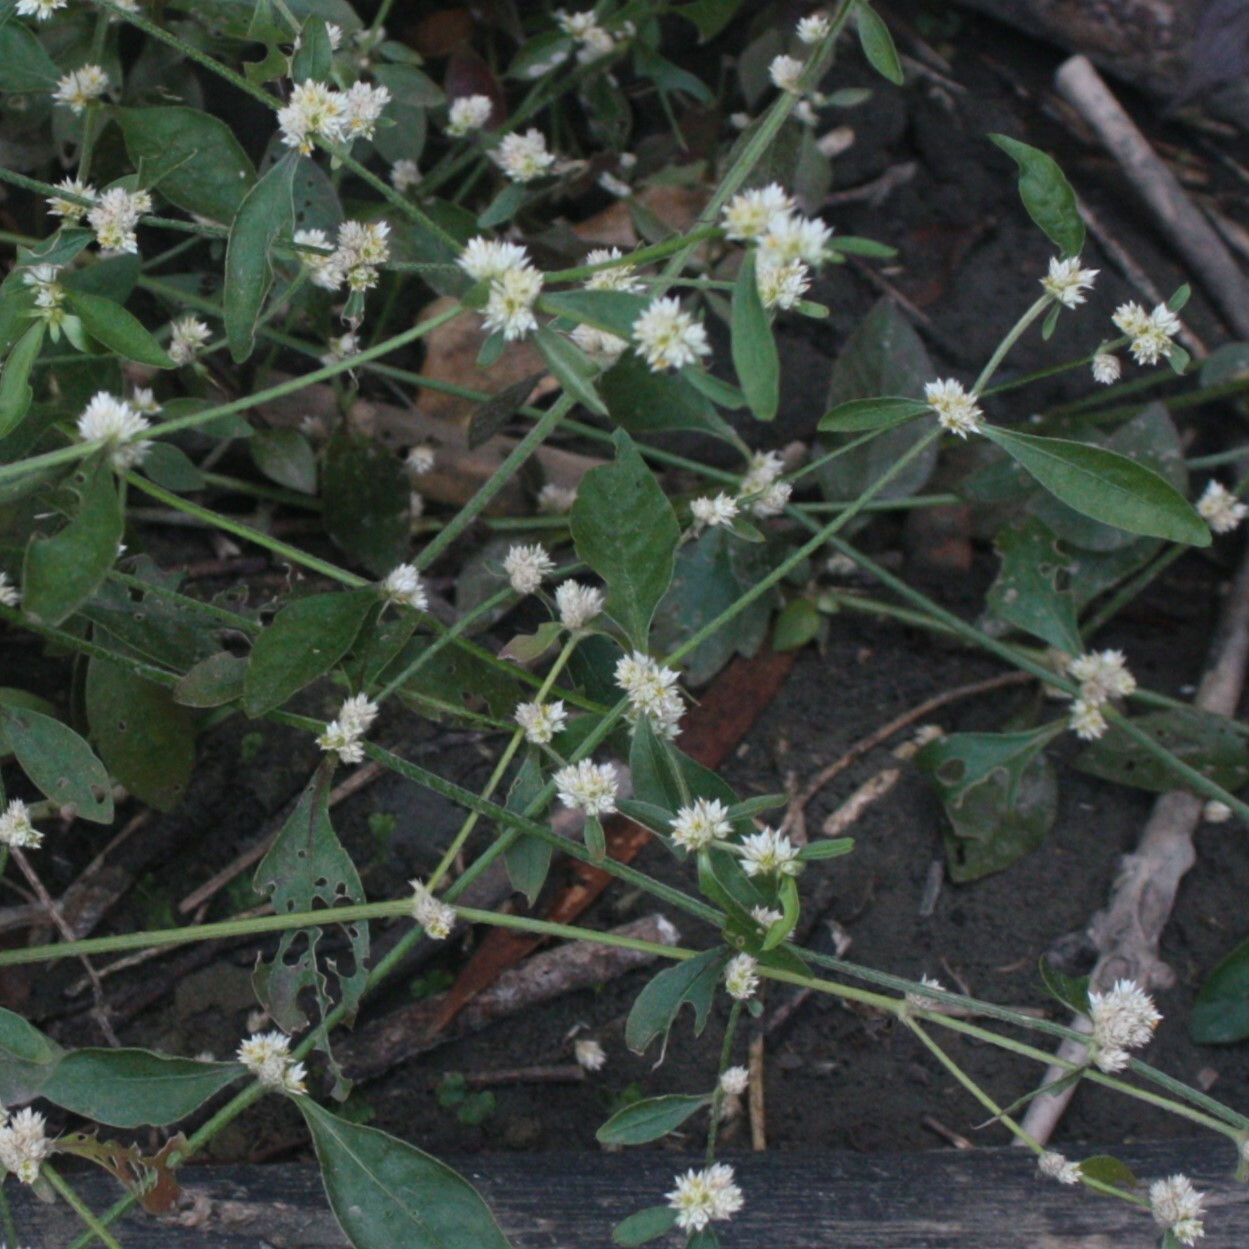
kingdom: Plantae
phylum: Tracheophyta
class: Magnoliopsida
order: Caryophyllales
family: Amaranthaceae
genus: Alternanthera
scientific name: Alternanthera ficoidea
